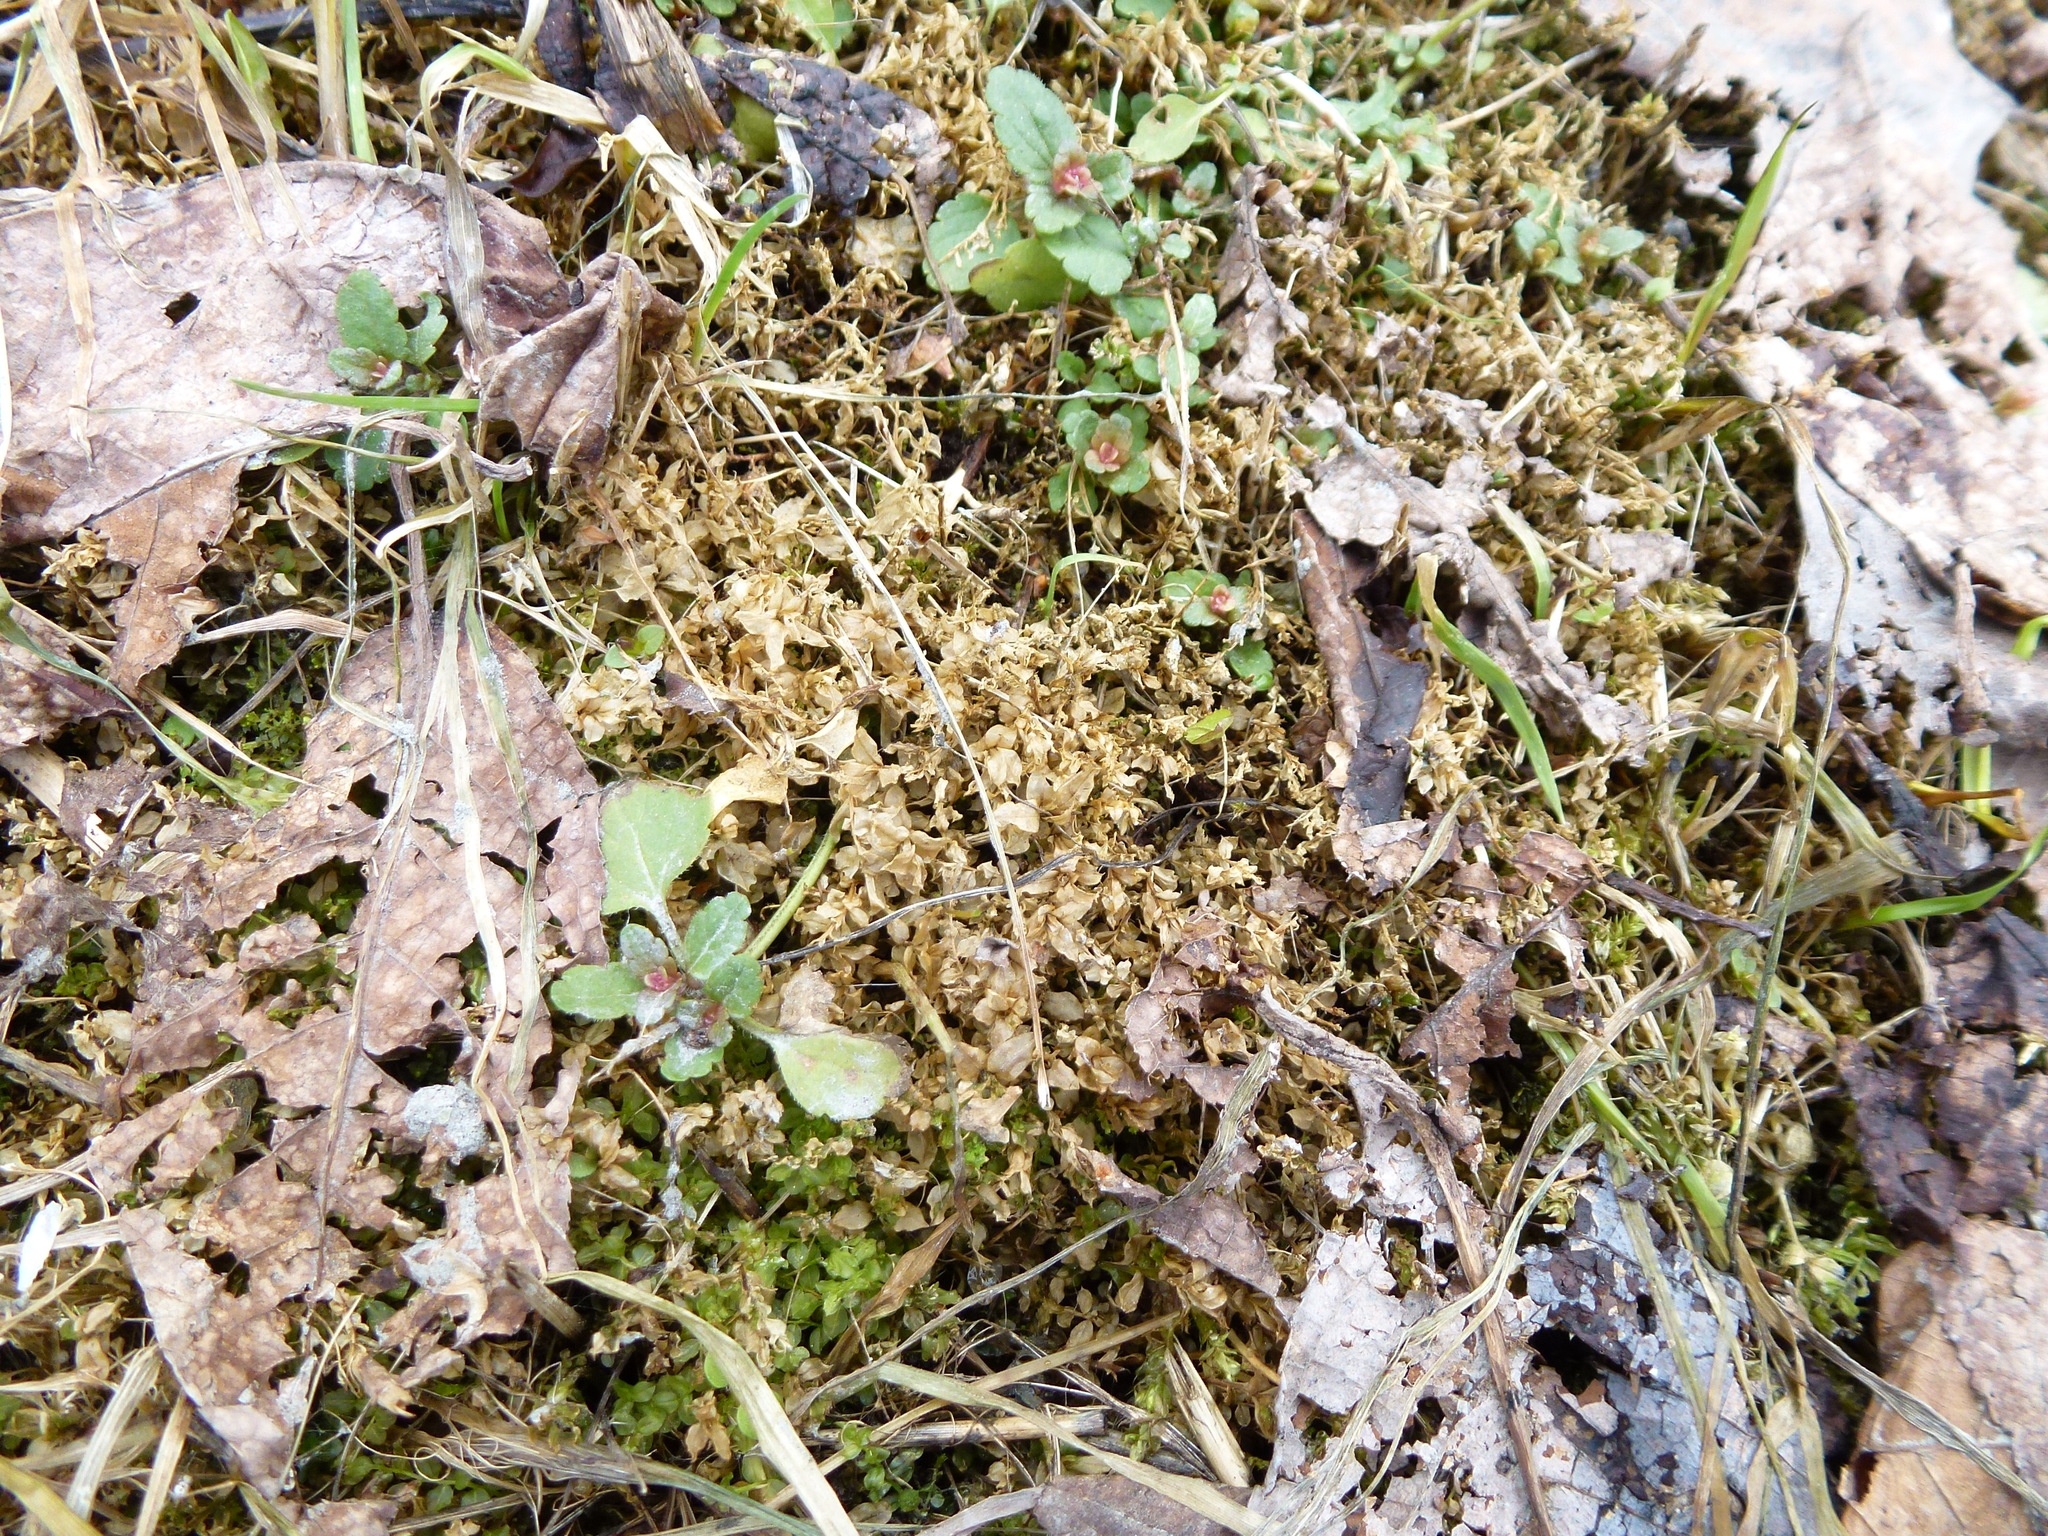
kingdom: Plantae
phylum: Tracheophyta
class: Magnoliopsida
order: Lamiales
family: Plantaginaceae
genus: Veronica
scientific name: Veronica chamaedrys
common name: Germander speedwell
